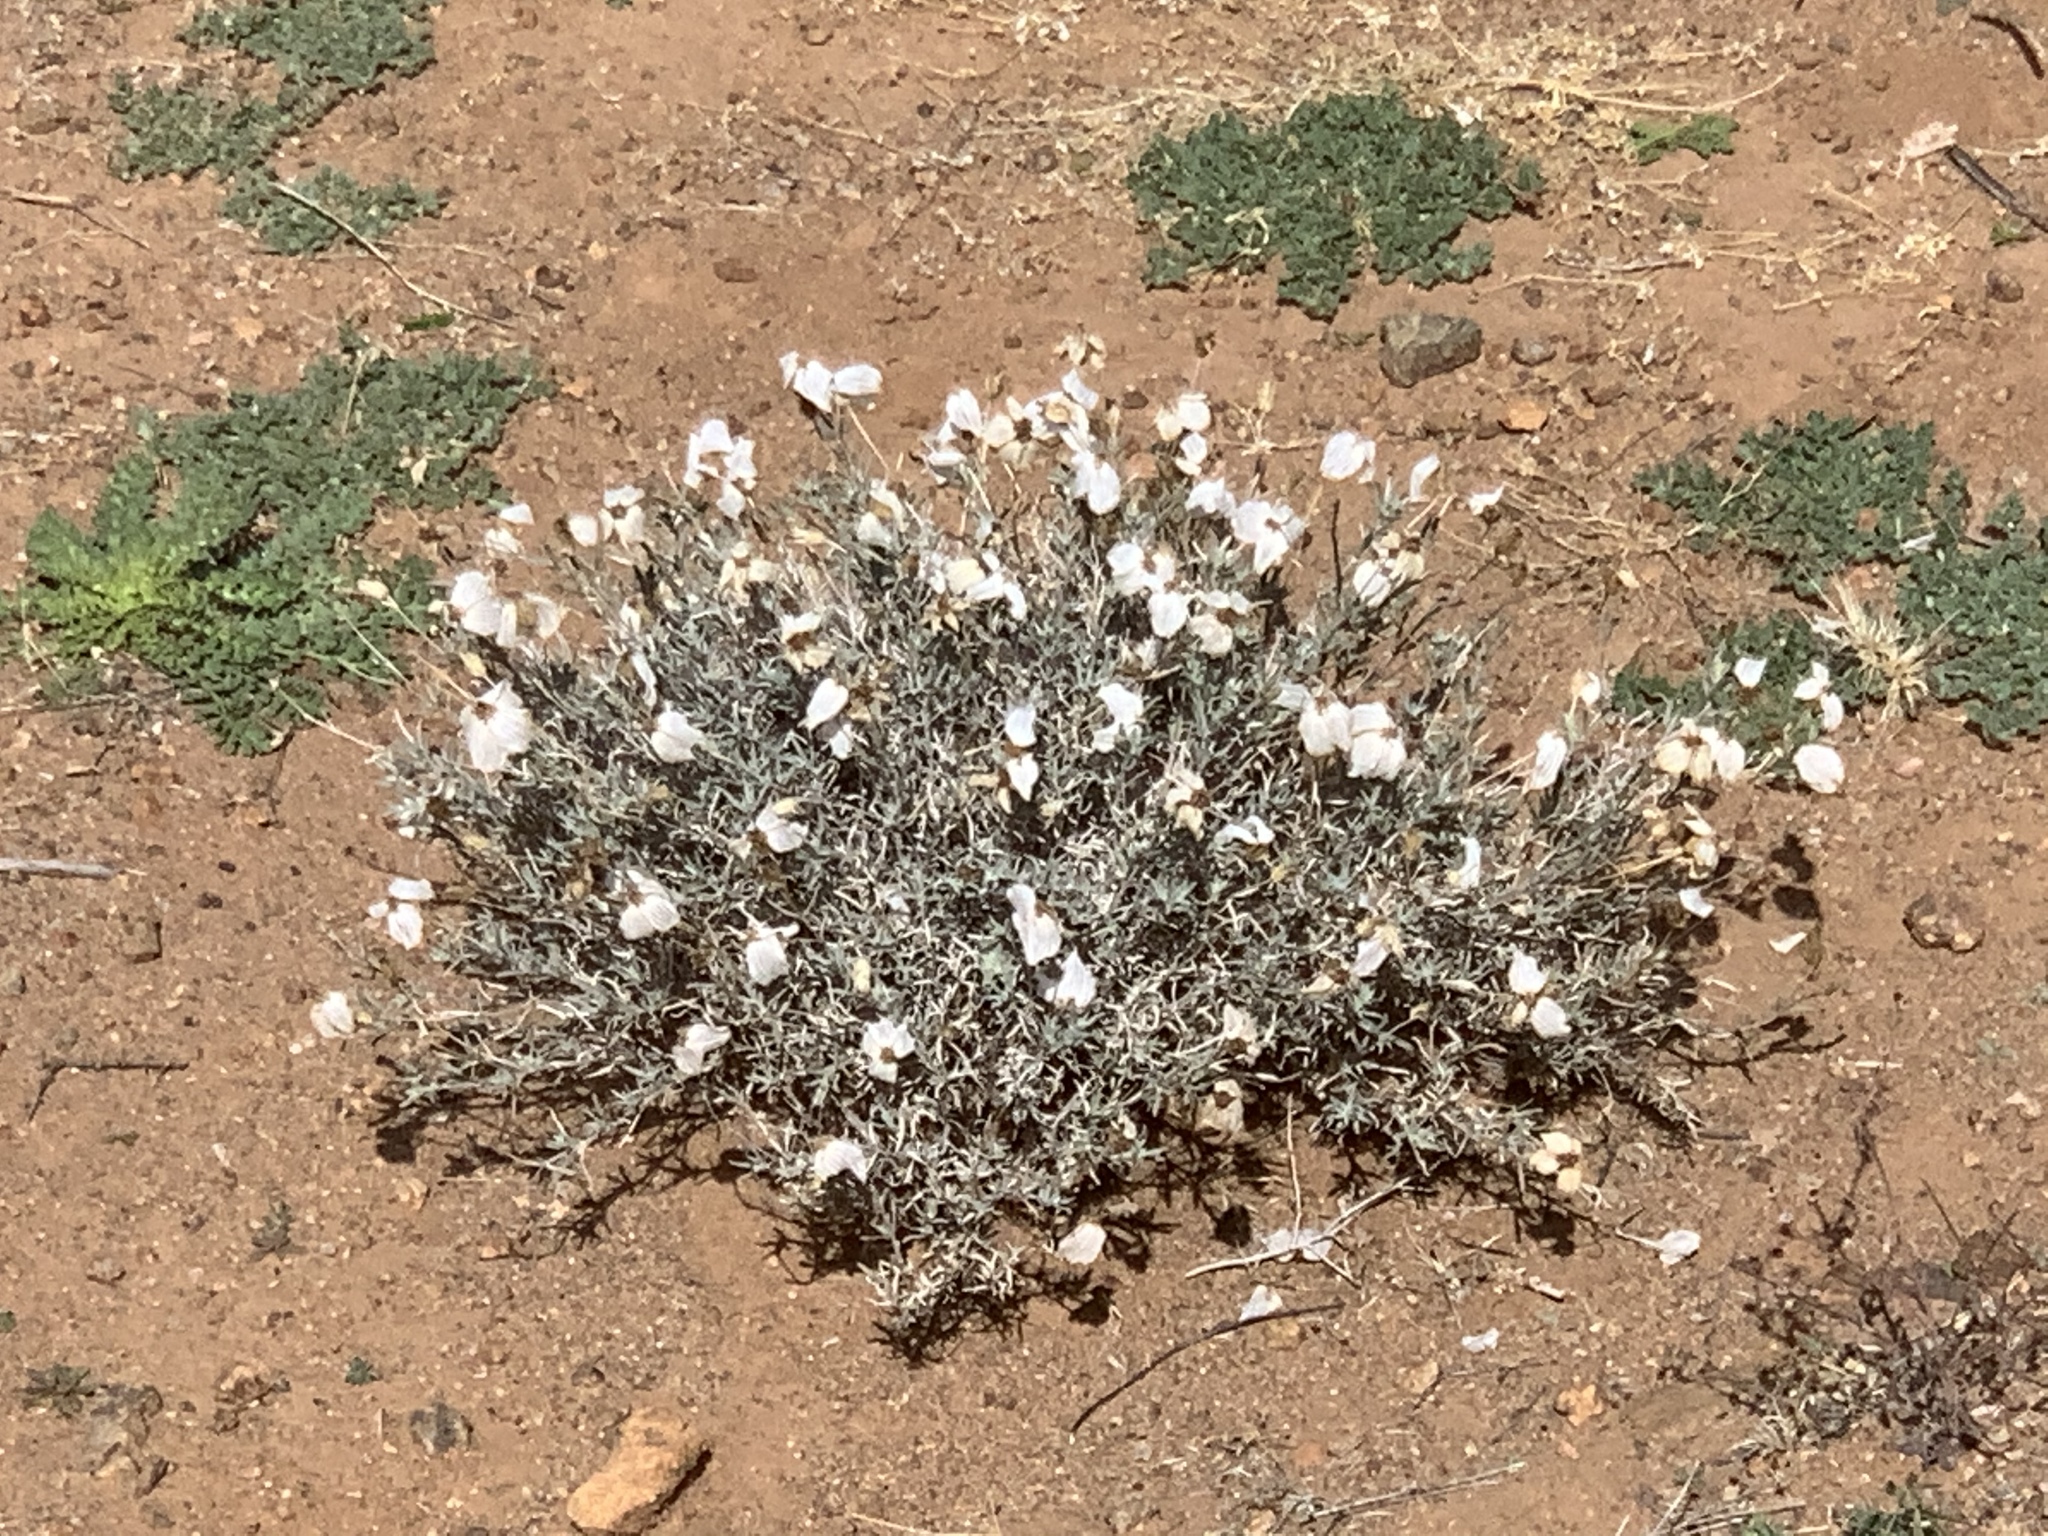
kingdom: Plantae
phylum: Tracheophyta
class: Magnoliopsida
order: Asterales
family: Asteraceae
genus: Zinnia
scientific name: Zinnia acerosa
